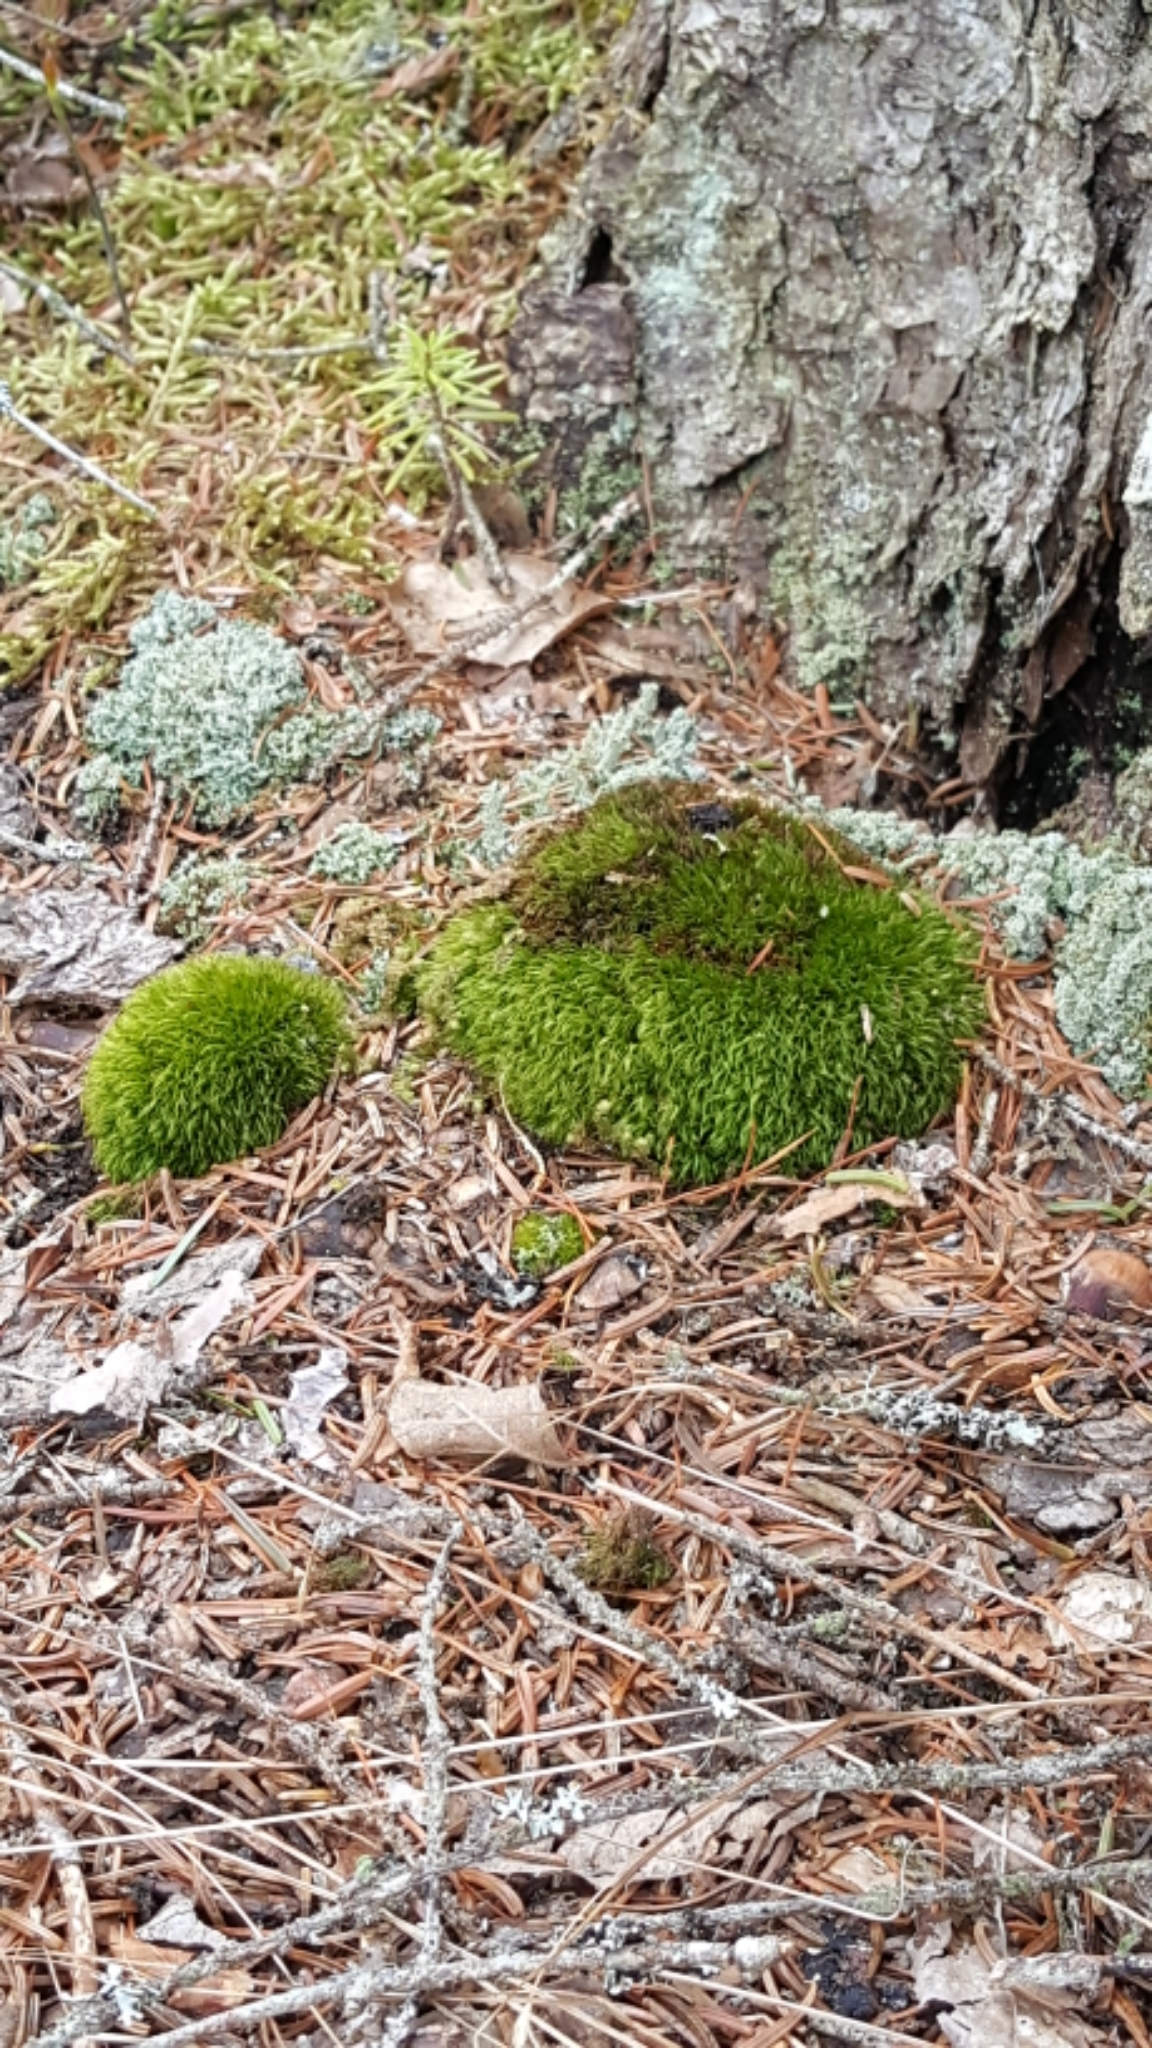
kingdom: Plantae
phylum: Bryophyta
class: Bryopsida
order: Dicranales
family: Leucobryaceae
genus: Leucobryum
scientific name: Leucobryum glaucum
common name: Large white-moss
